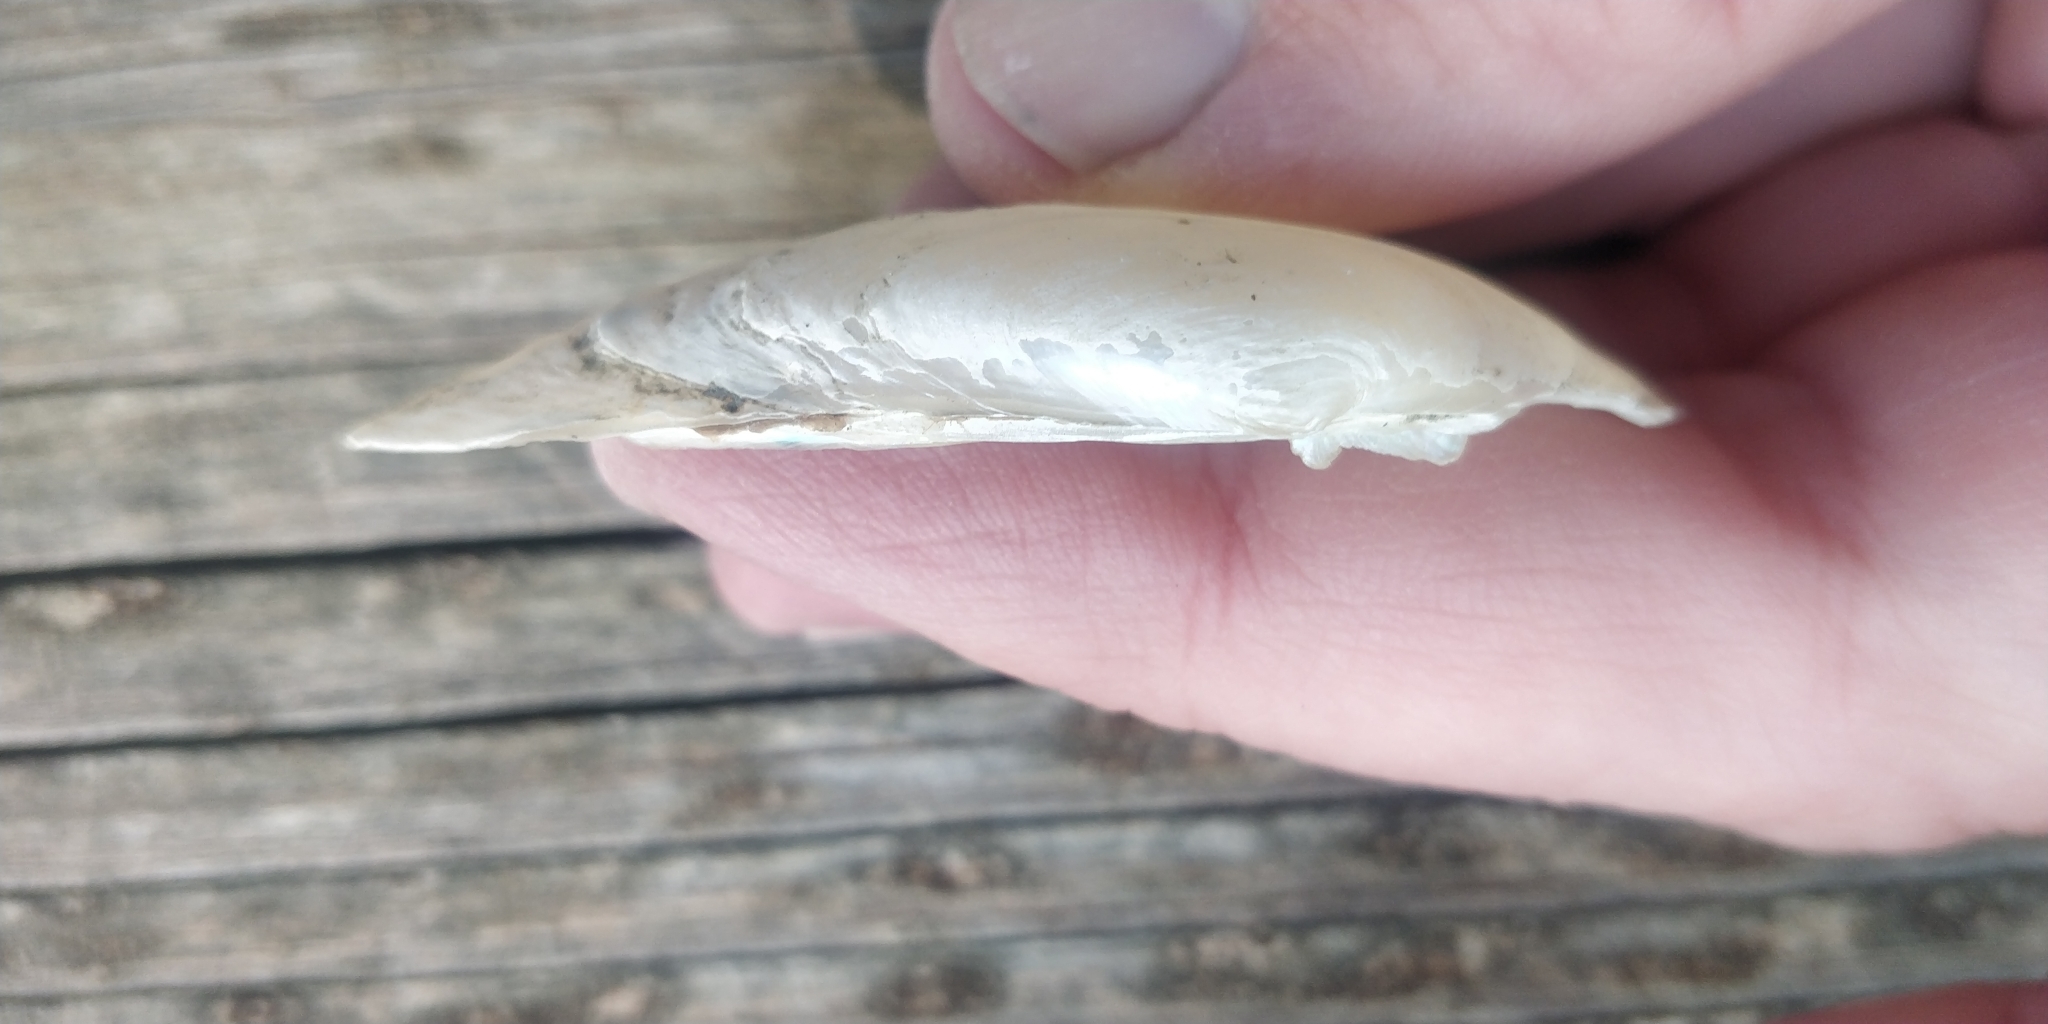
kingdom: Animalia
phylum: Mollusca
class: Bivalvia
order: Unionida
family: Unionidae
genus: Lampsilis
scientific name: Lampsilis teres
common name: Yellow sandshell
